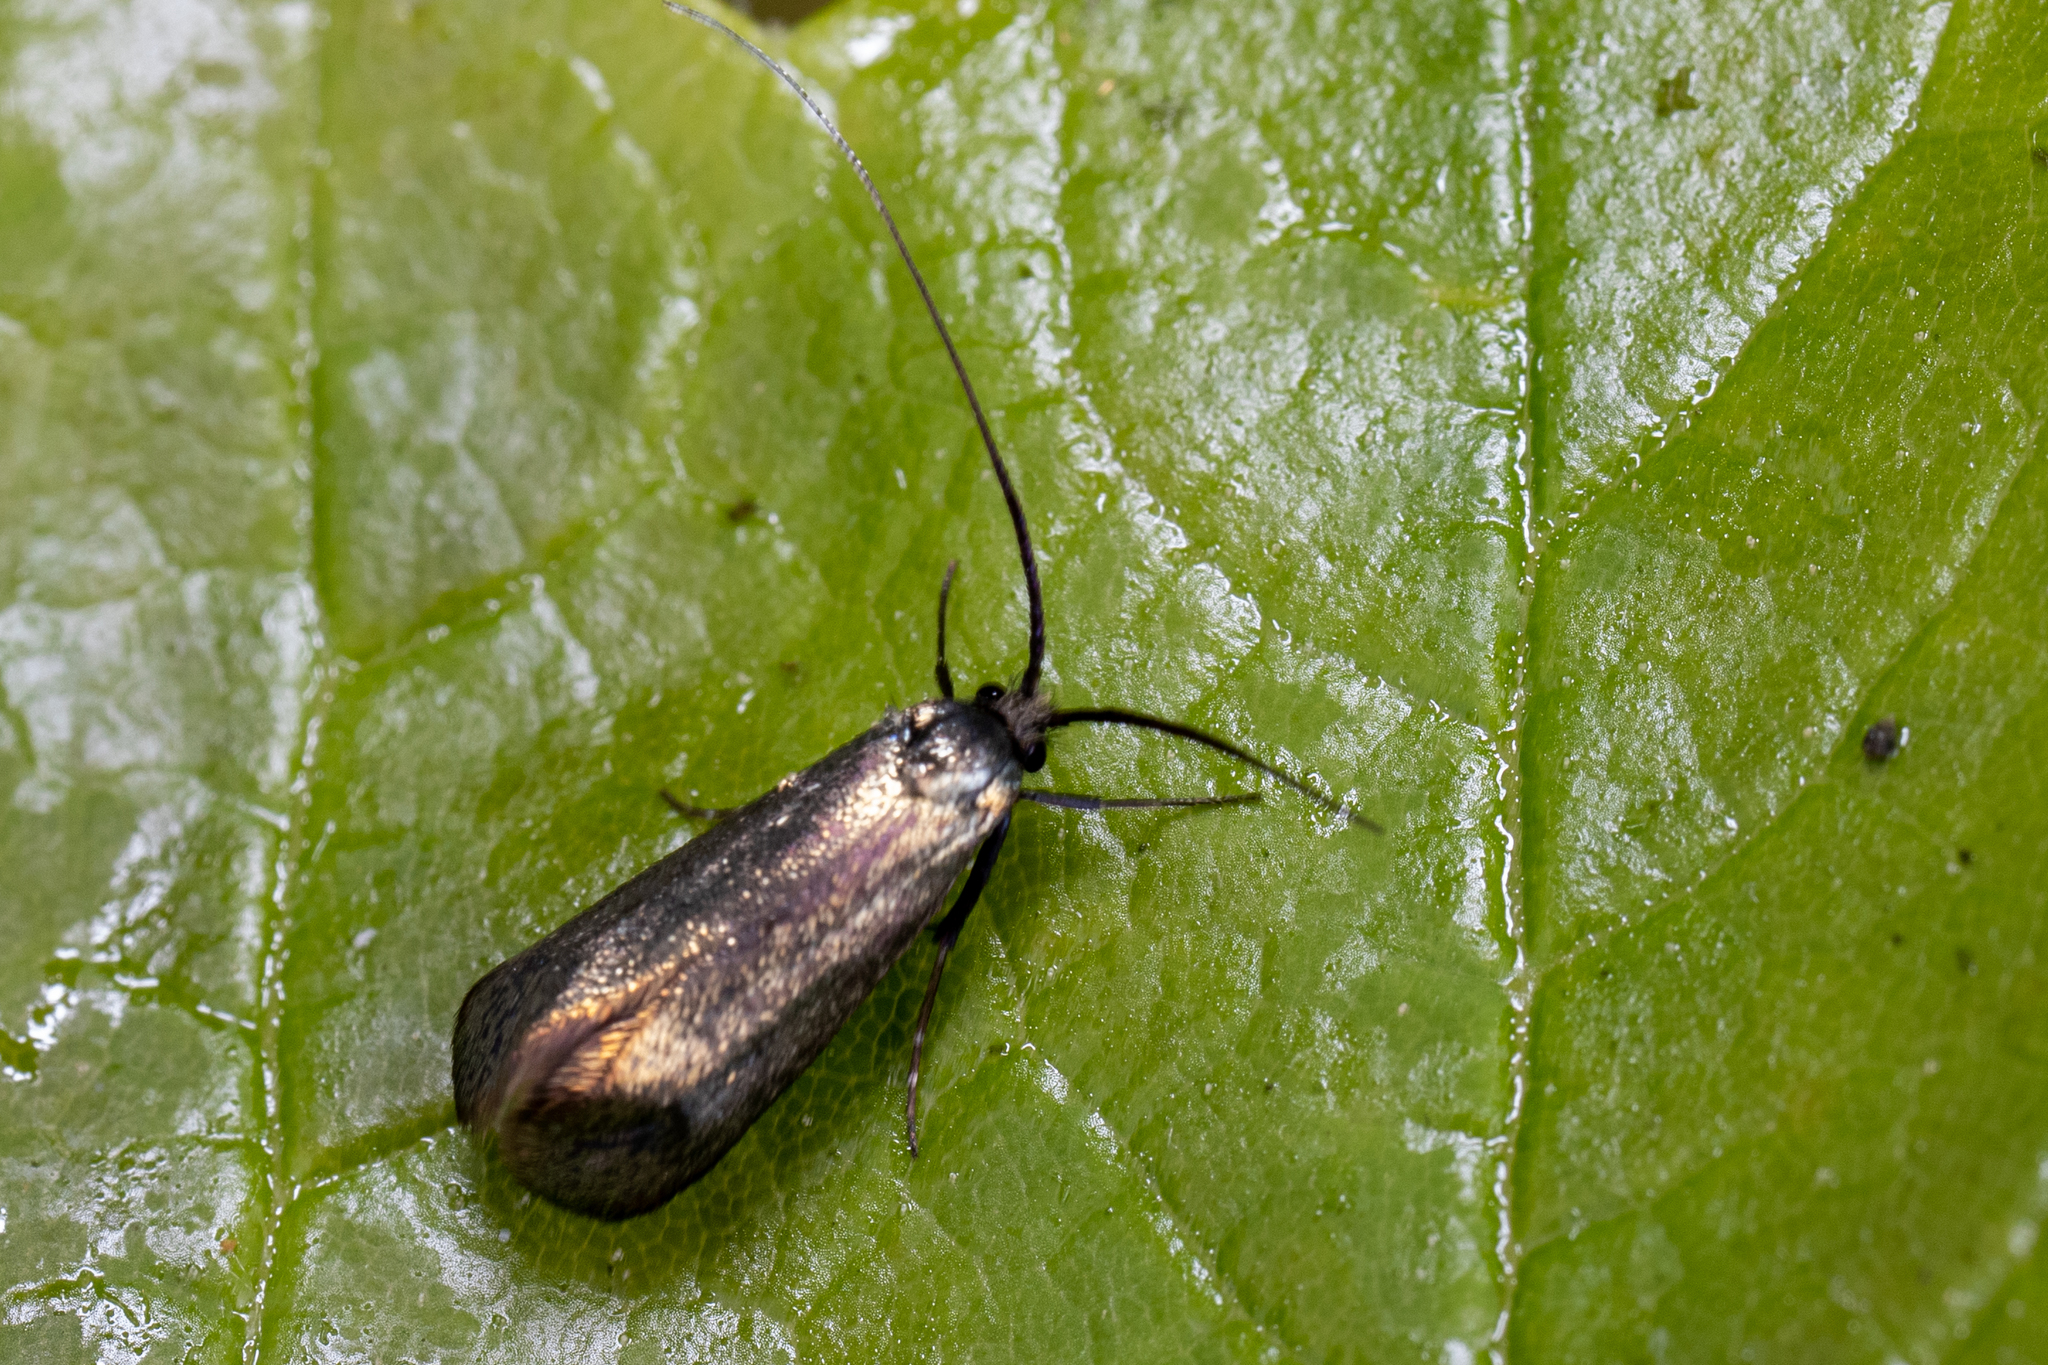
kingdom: Animalia
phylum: Arthropoda
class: Insecta
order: Lepidoptera
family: Adelidae
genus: Adela
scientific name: Adela viridella
